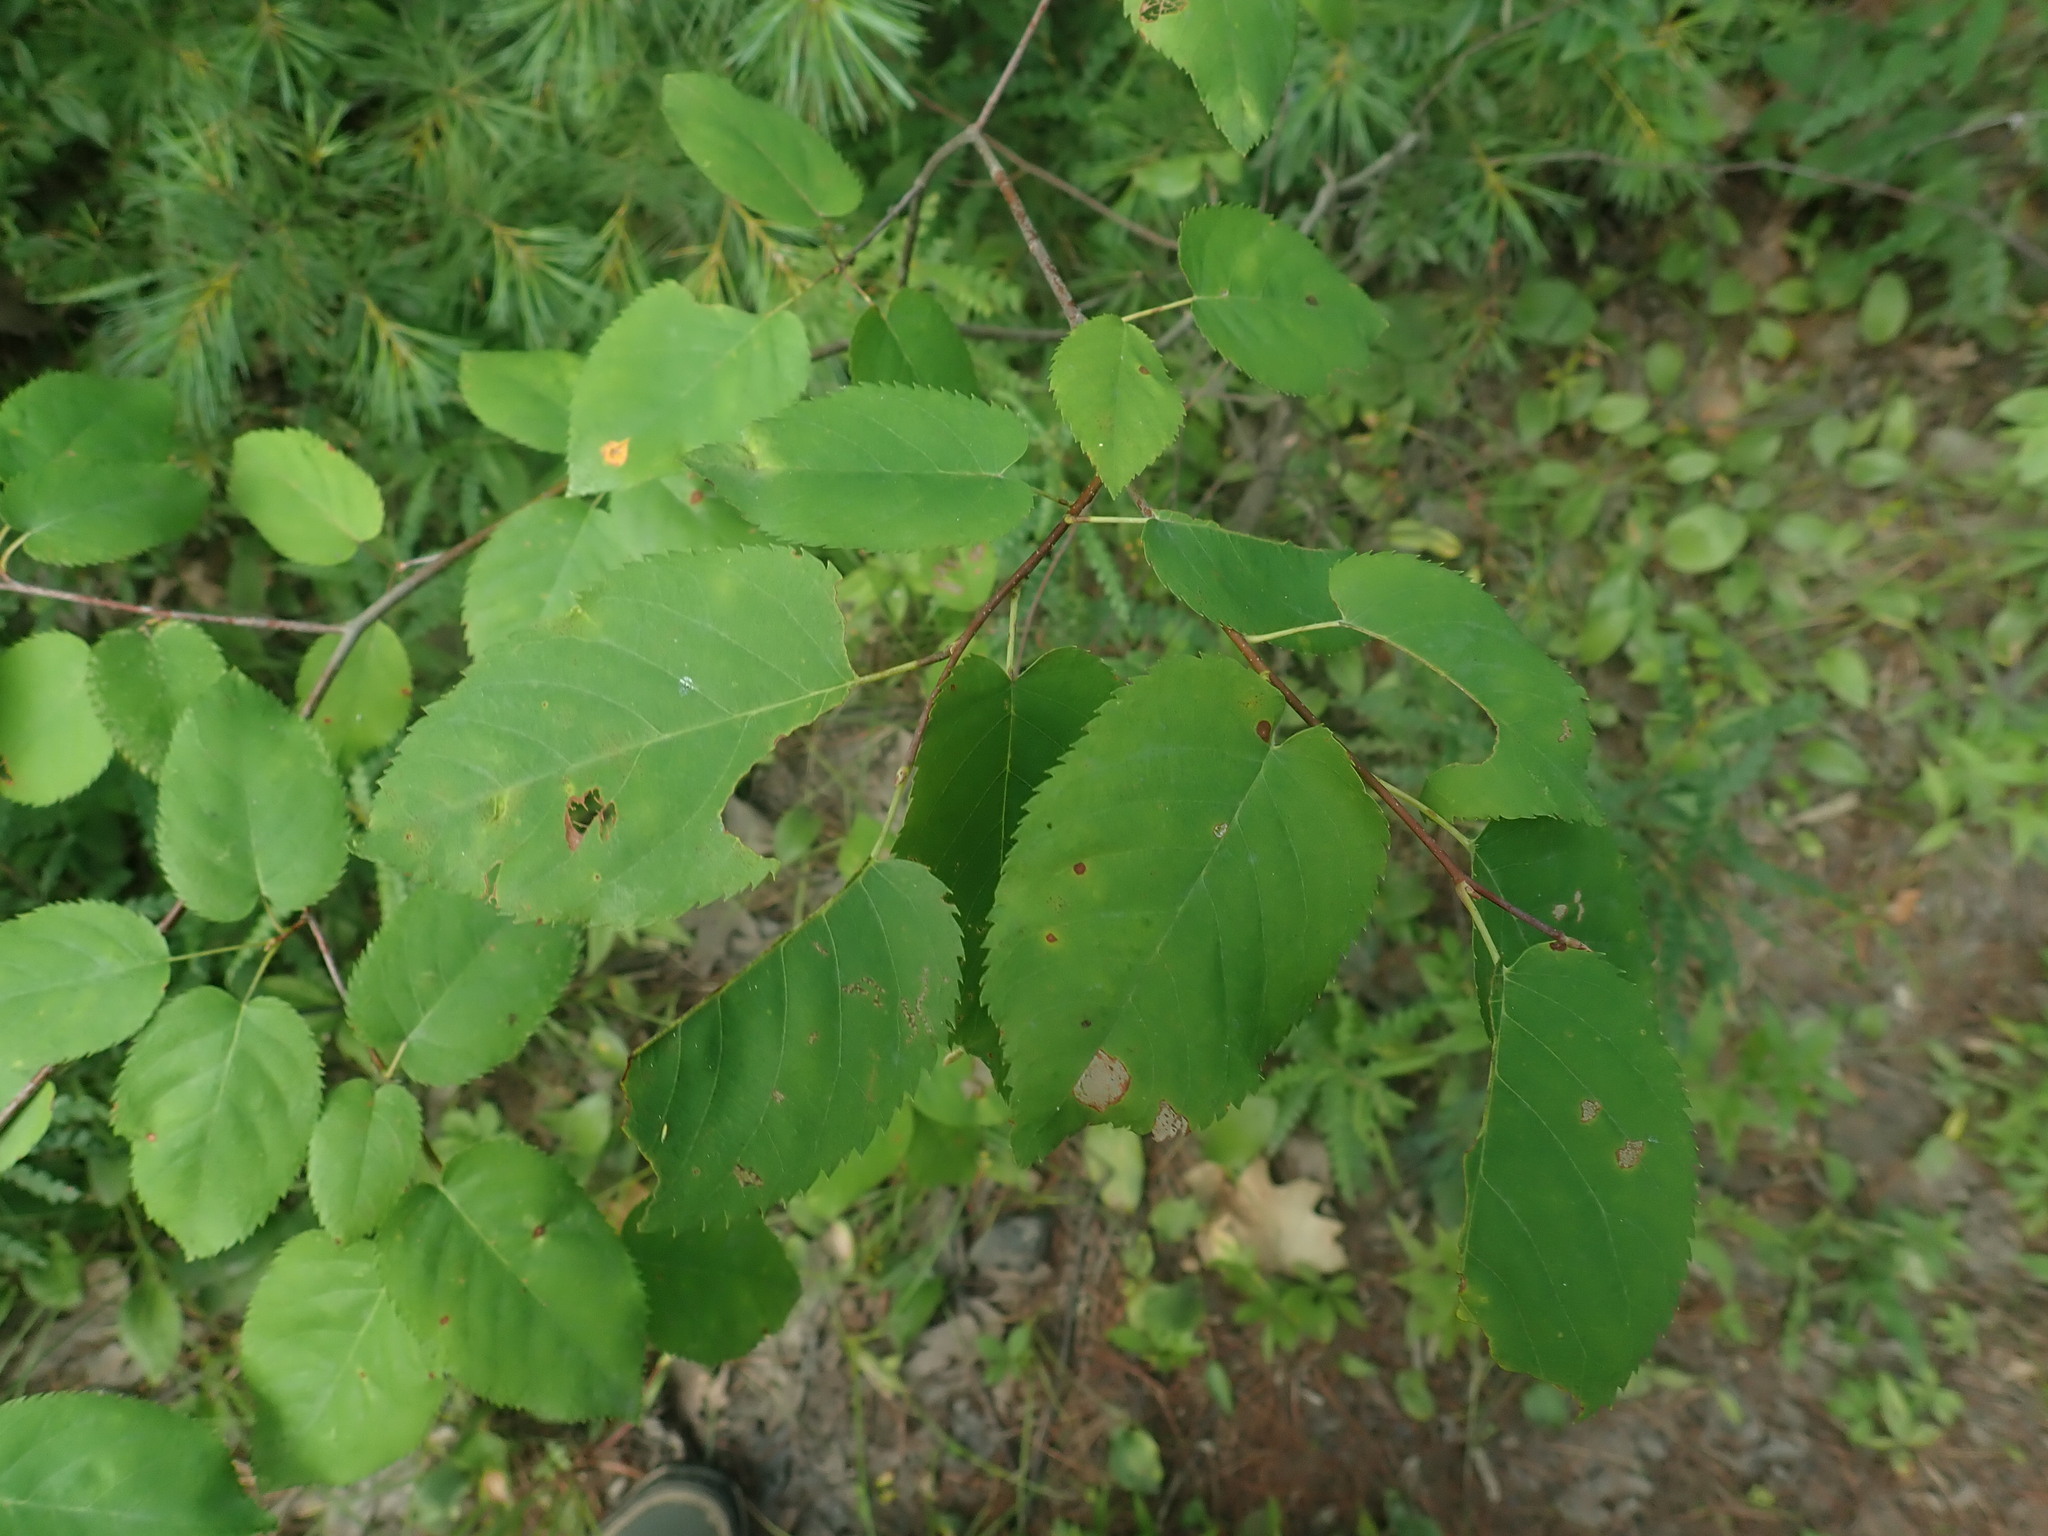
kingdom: Plantae
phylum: Tracheophyta
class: Magnoliopsida
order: Rosales
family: Rosaceae
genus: Amelanchier
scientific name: Amelanchier
